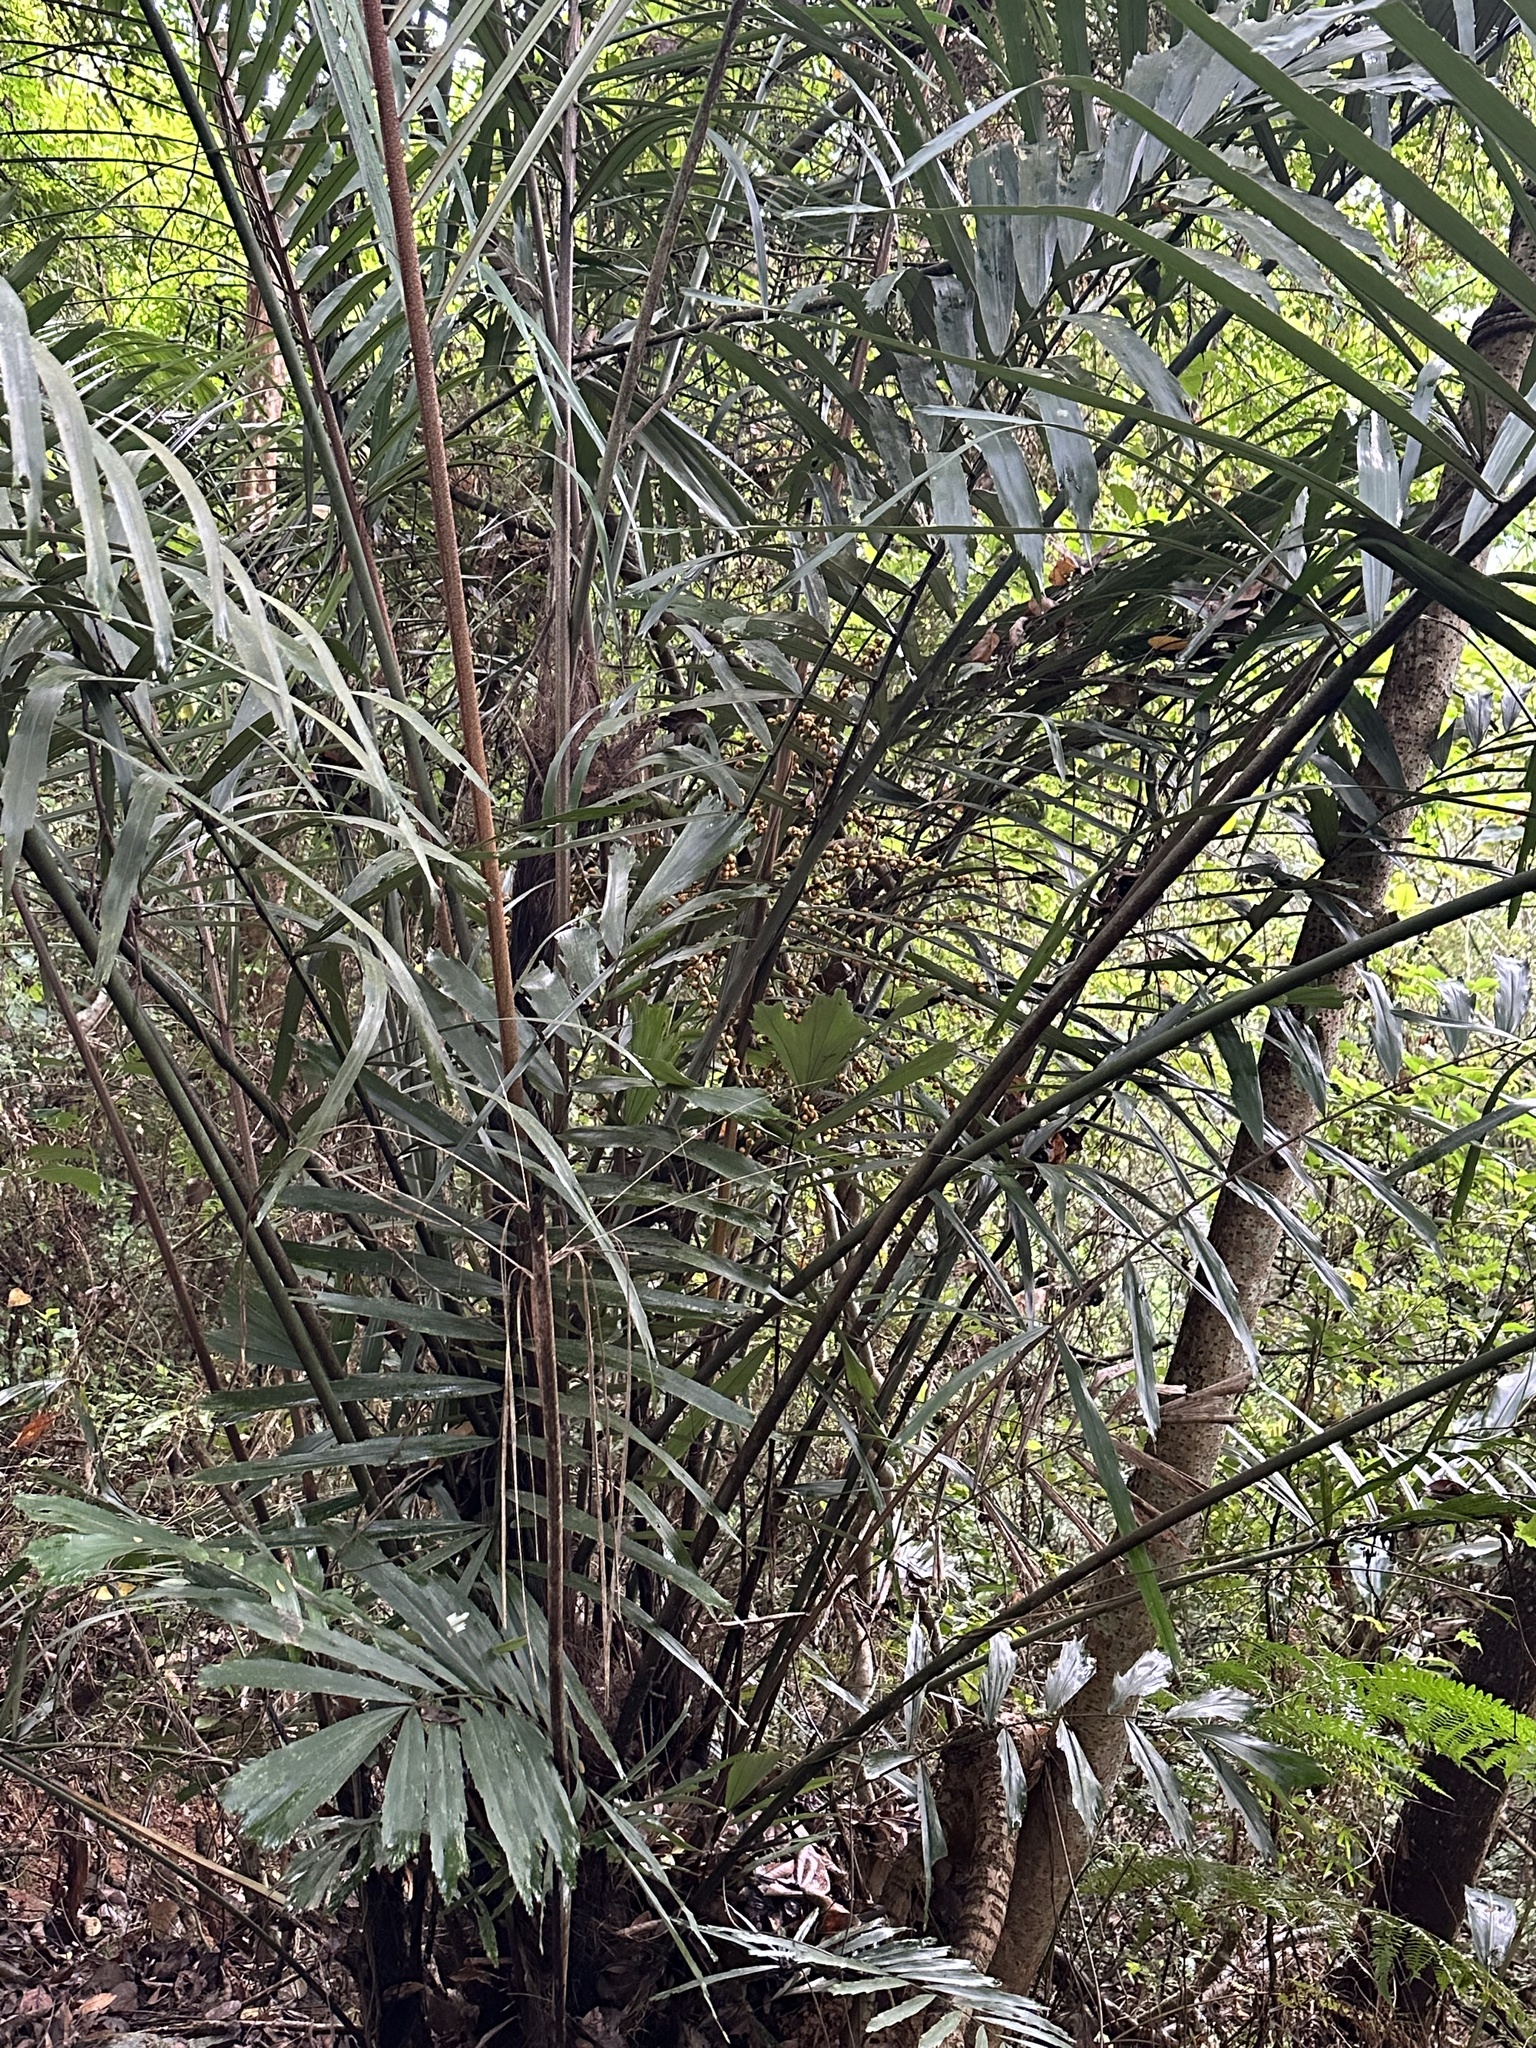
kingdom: Plantae
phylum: Tracheophyta
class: Liliopsida
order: Arecales
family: Arecaceae
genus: Arenga
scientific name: Arenga engleri
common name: Formosan sugar palm
